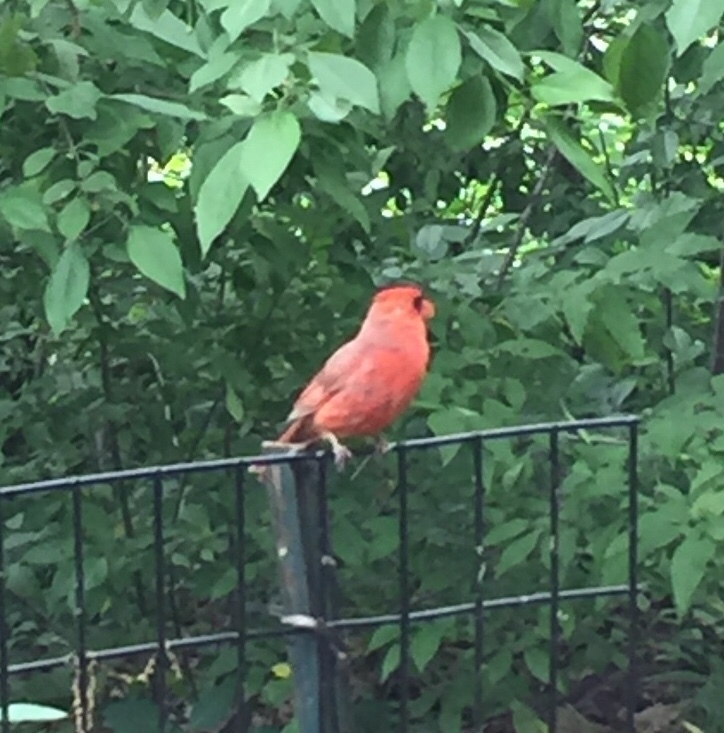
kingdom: Animalia
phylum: Chordata
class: Aves
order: Passeriformes
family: Cardinalidae
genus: Cardinalis
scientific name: Cardinalis cardinalis
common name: Northern cardinal
